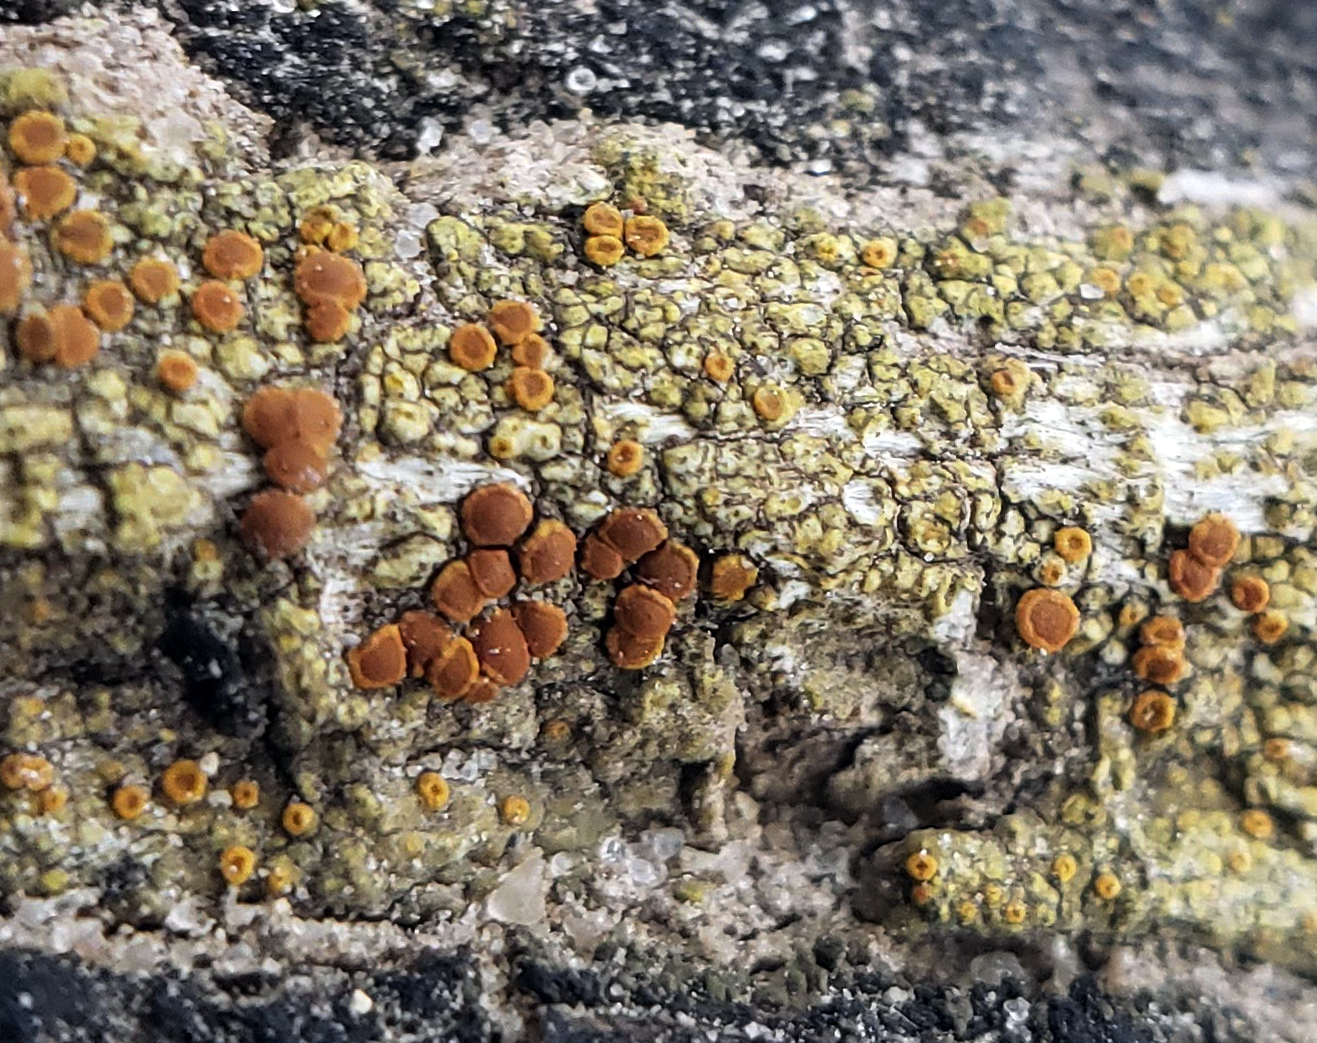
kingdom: Fungi
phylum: Ascomycota
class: Lecanoromycetes
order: Teloschistales
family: Teloschistaceae
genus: Opeltia
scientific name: Opeltia flavorubescens
